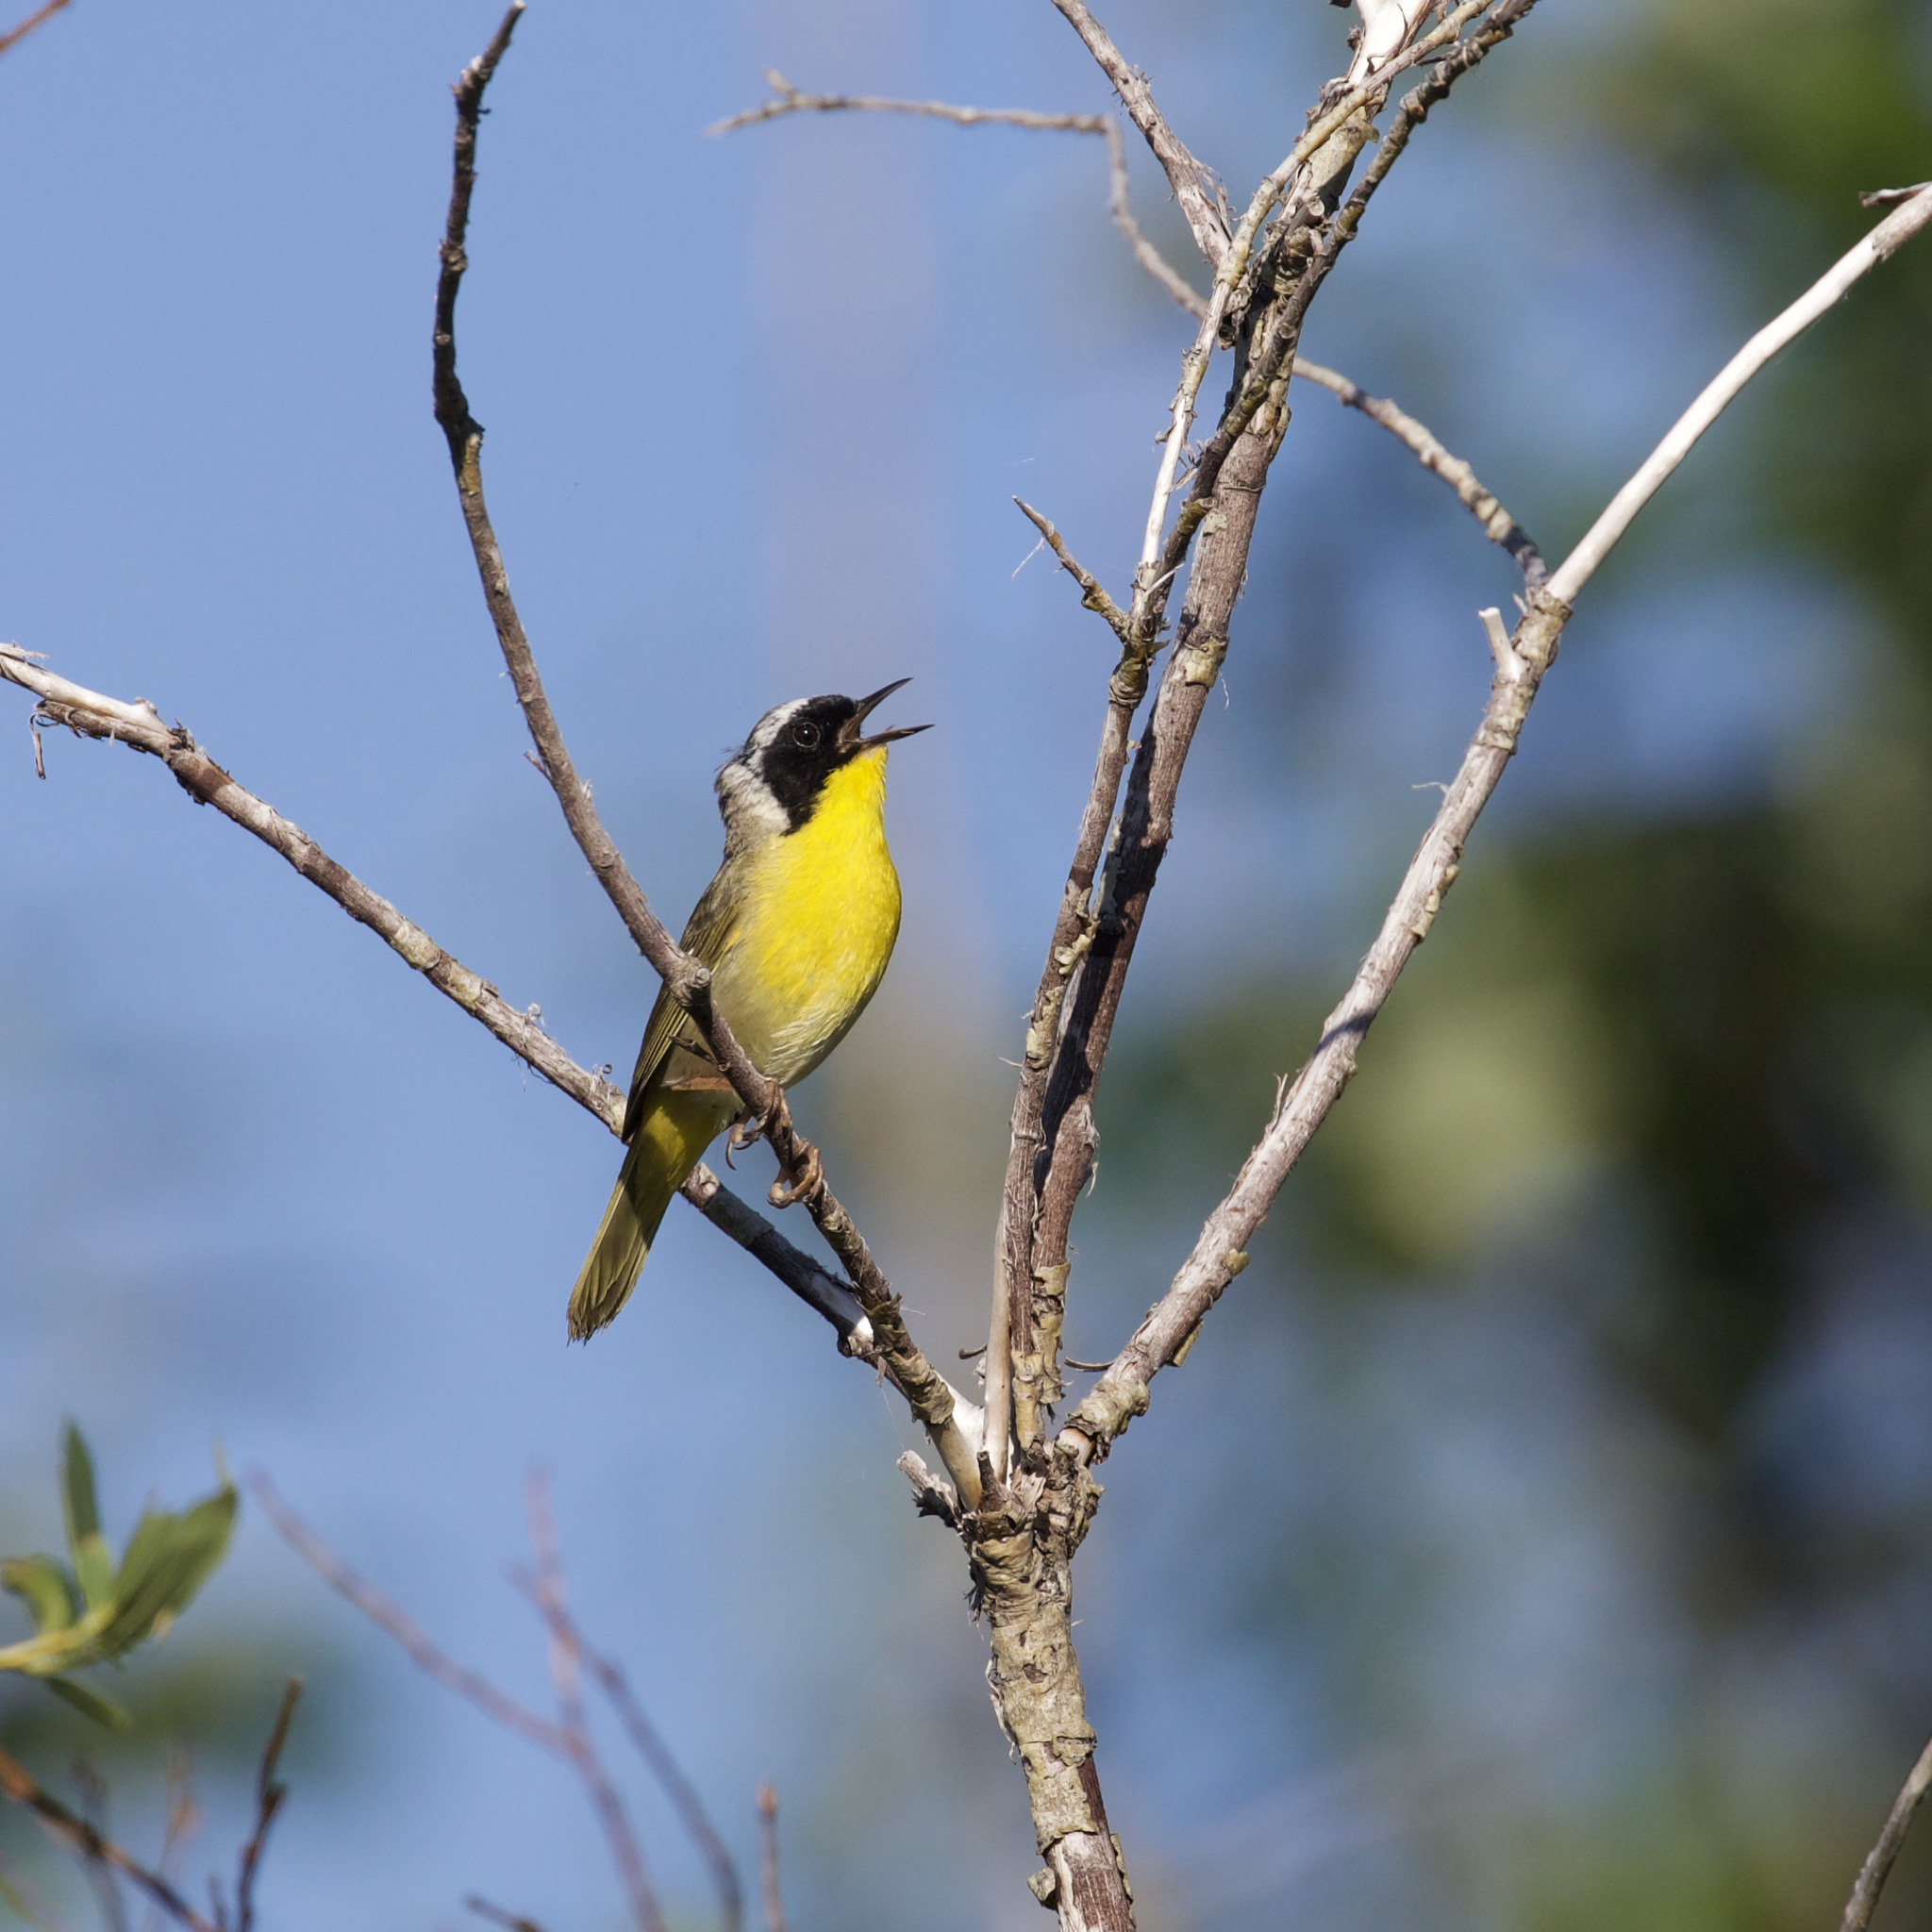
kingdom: Animalia
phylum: Chordata
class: Aves
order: Passeriformes
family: Parulidae
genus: Geothlypis
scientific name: Geothlypis trichas
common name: Common yellowthroat
